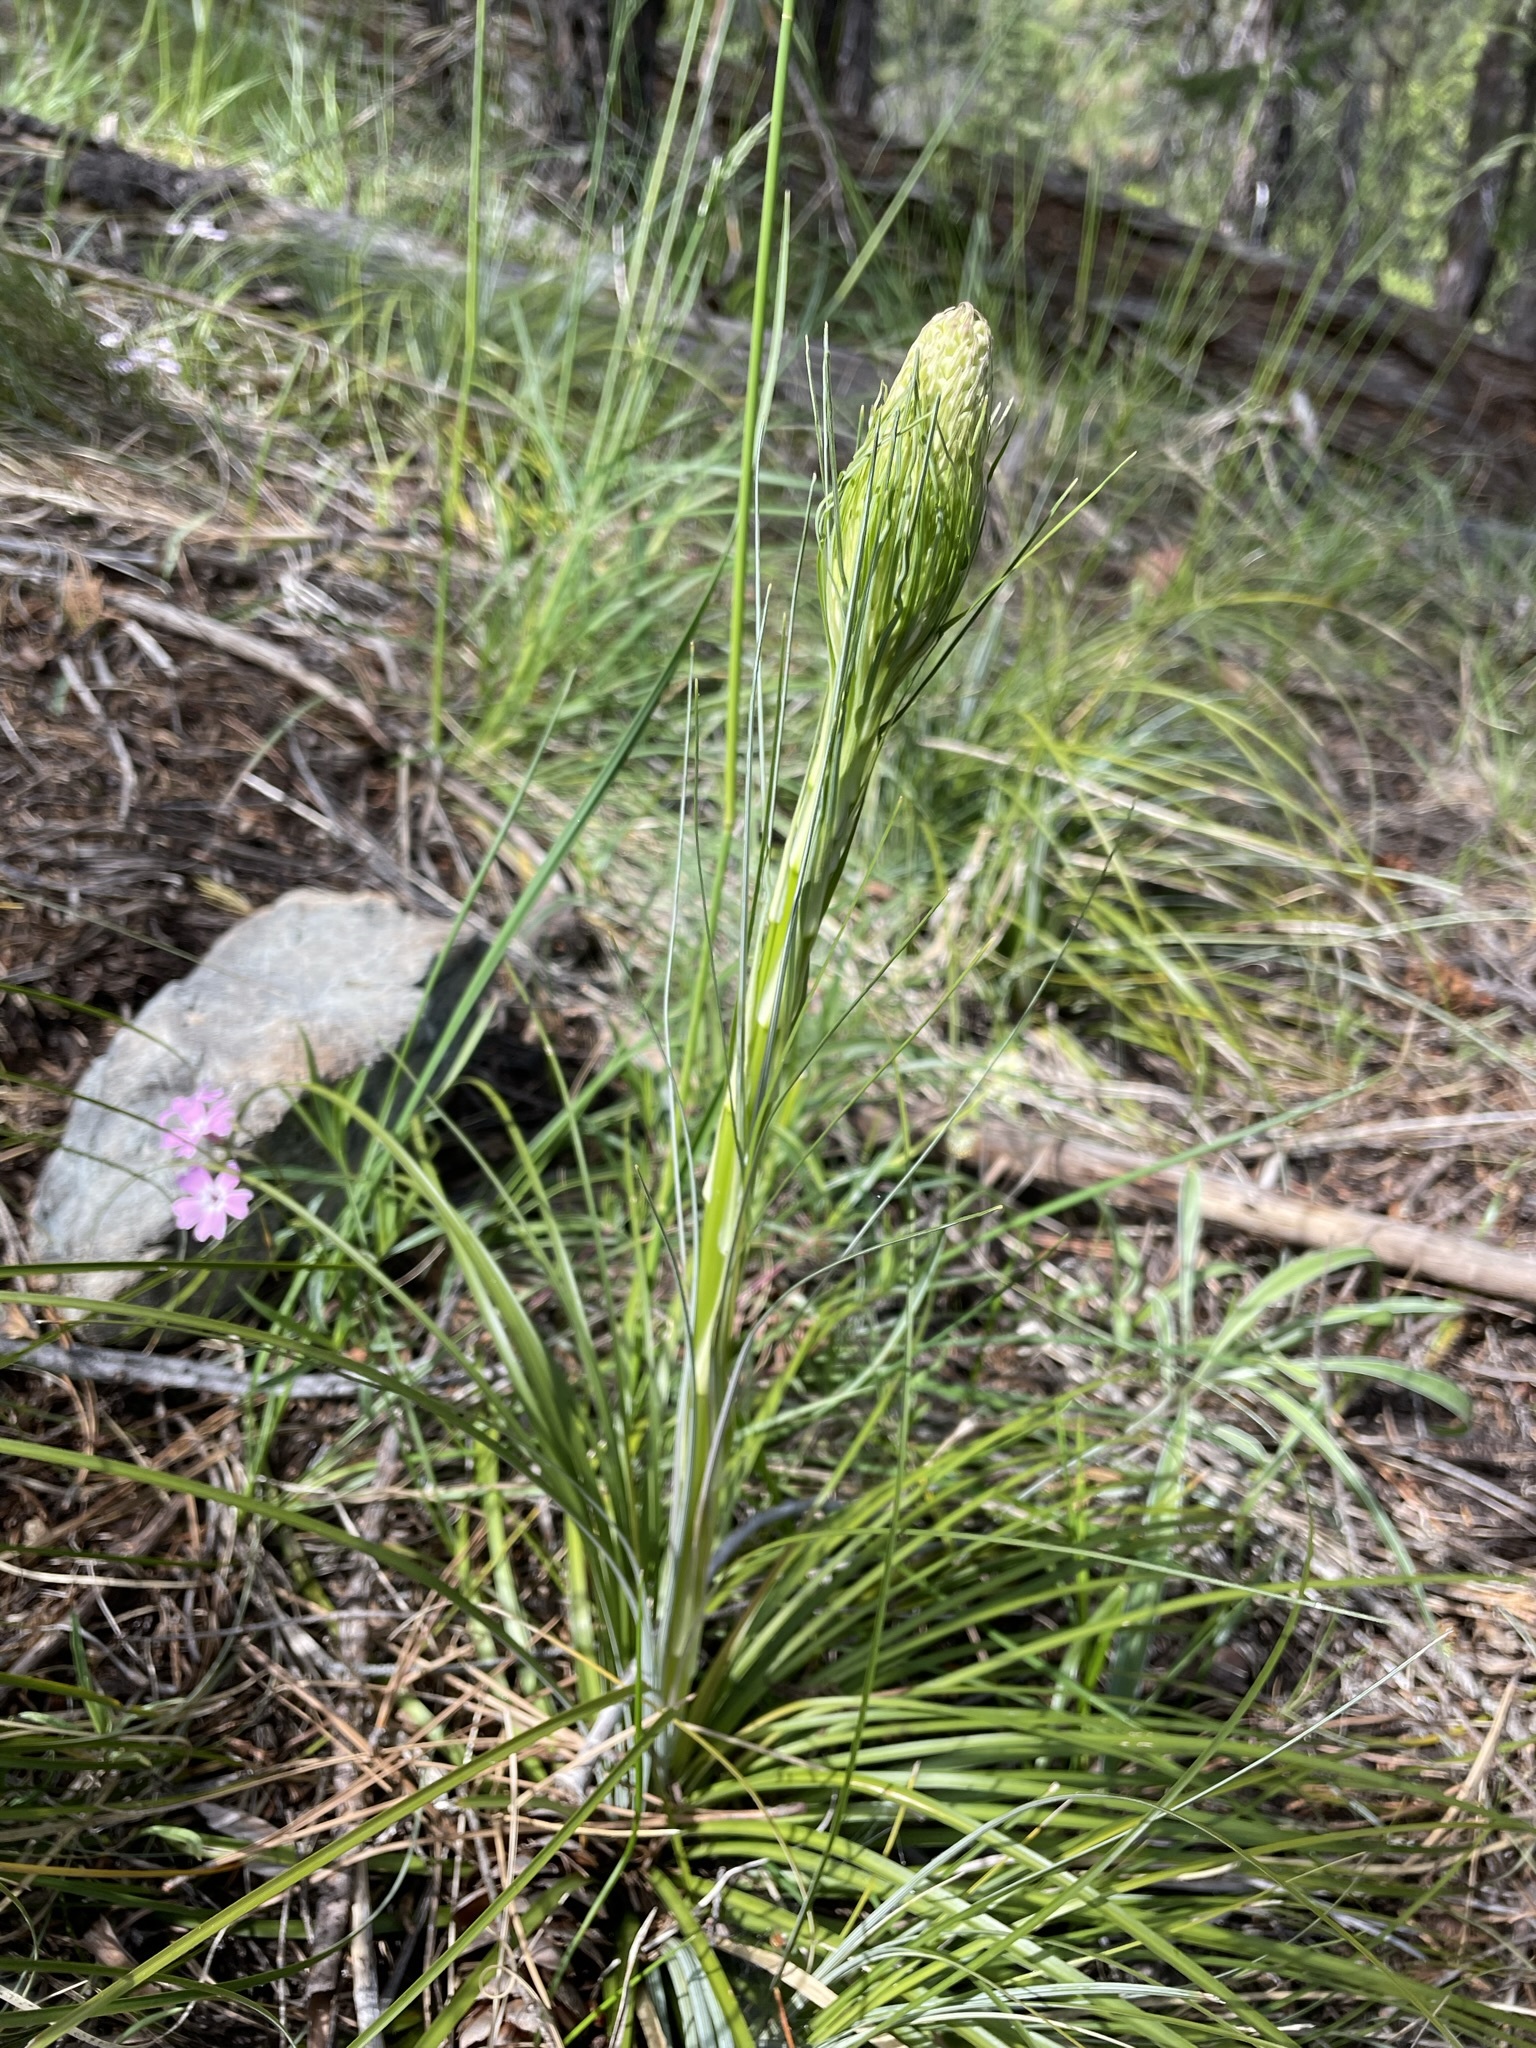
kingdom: Plantae
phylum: Tracheophyta
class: Liliopsida
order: Liliales
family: Melanthiaceae
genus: Xerophyllum
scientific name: Xerophyllum tenax
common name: Bear-grass
